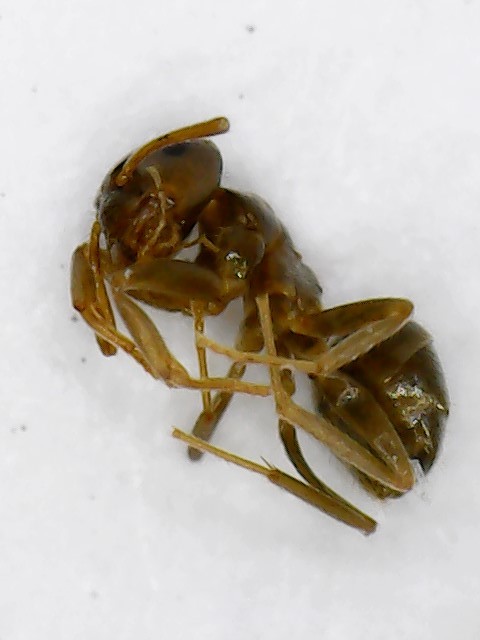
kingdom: Animalia
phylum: Arthropoda
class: Insecta
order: Hymenoptera
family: Formicidae
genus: Lasius
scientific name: Lasius neoniger
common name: Turfgrass ant
